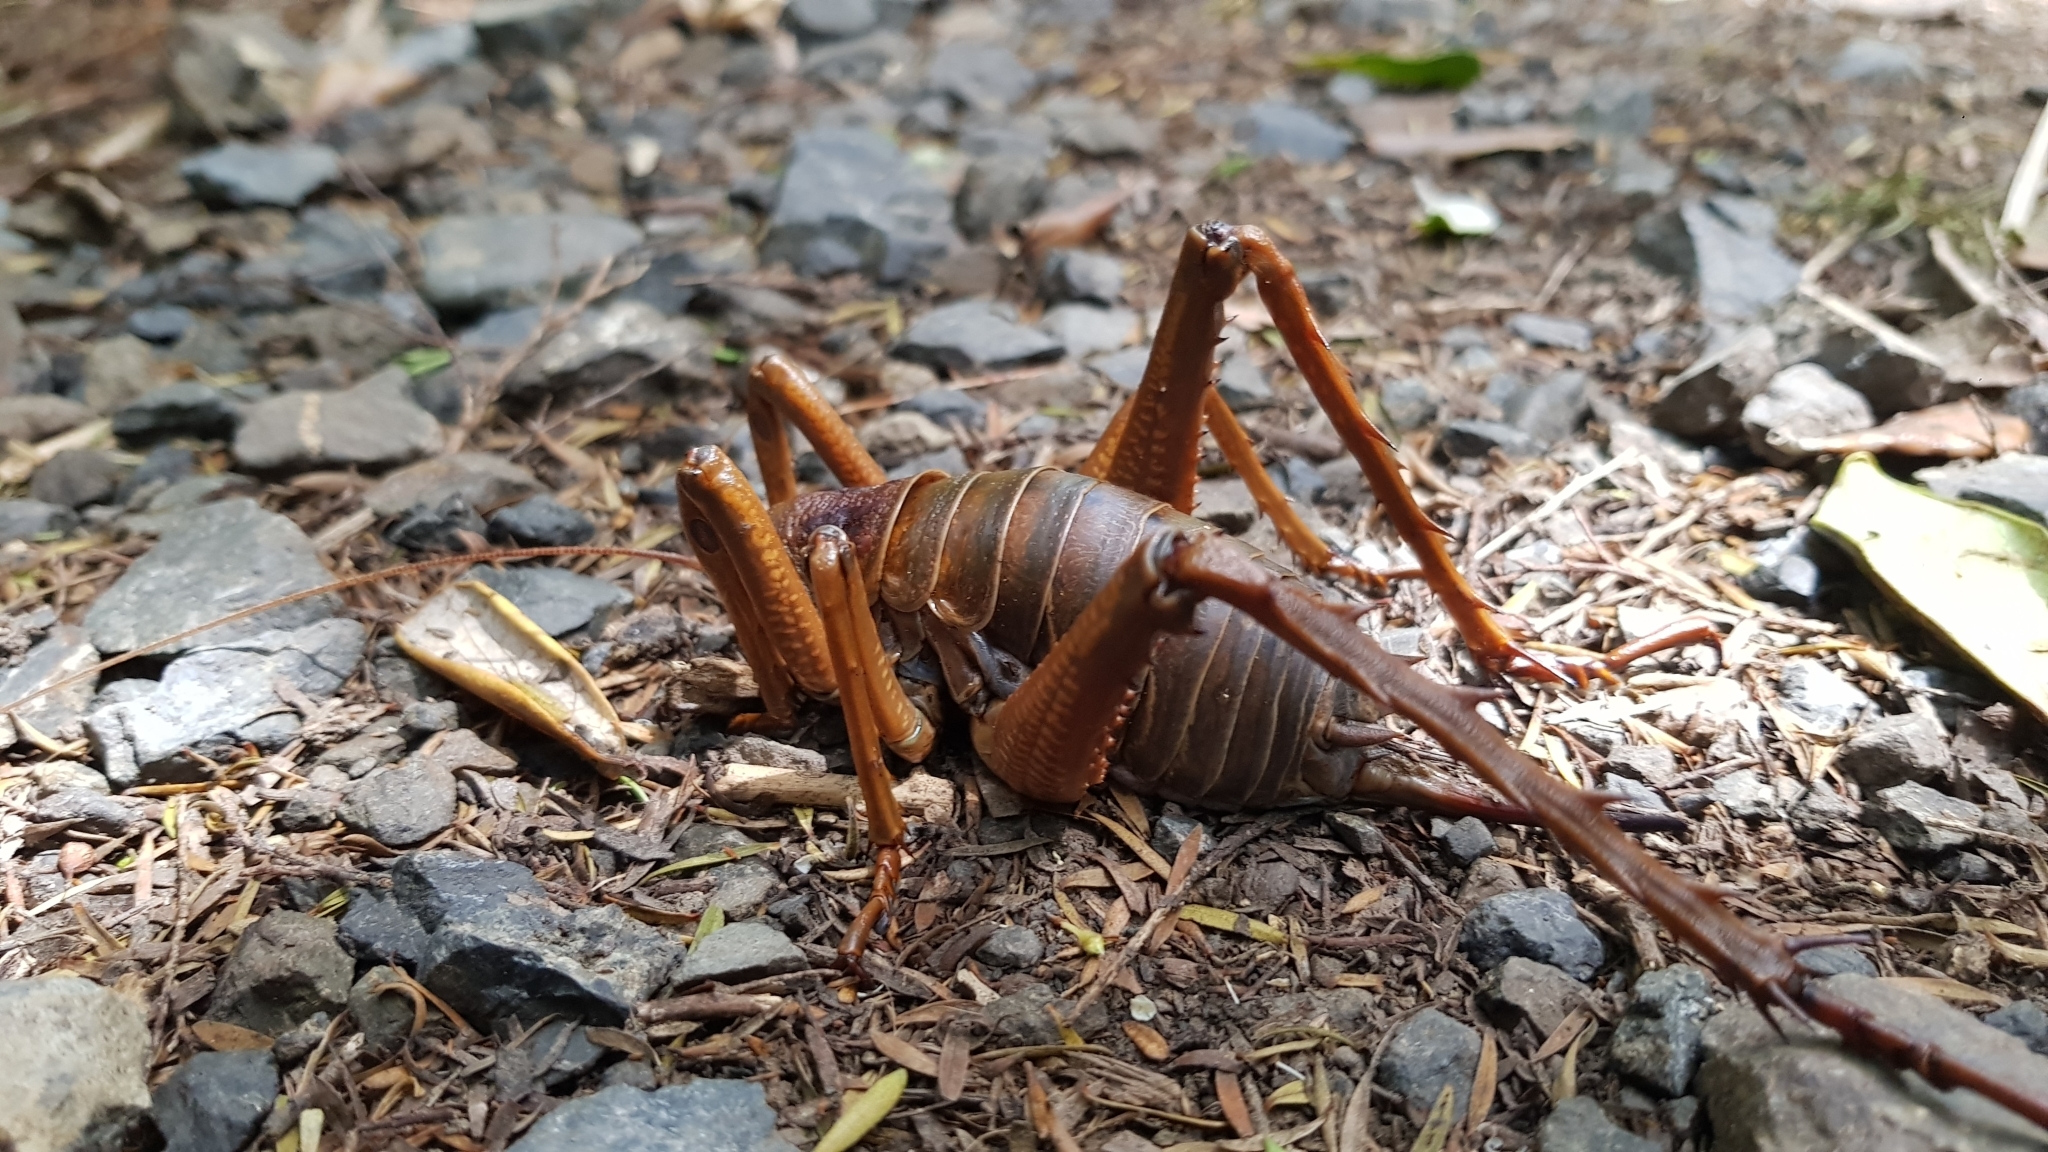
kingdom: Animalia
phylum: Arthropoda
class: Insecta
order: Orthoptera
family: Anostostomatidae
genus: Deinacrida
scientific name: Deinacrida heteracantha
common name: Wetapunga
